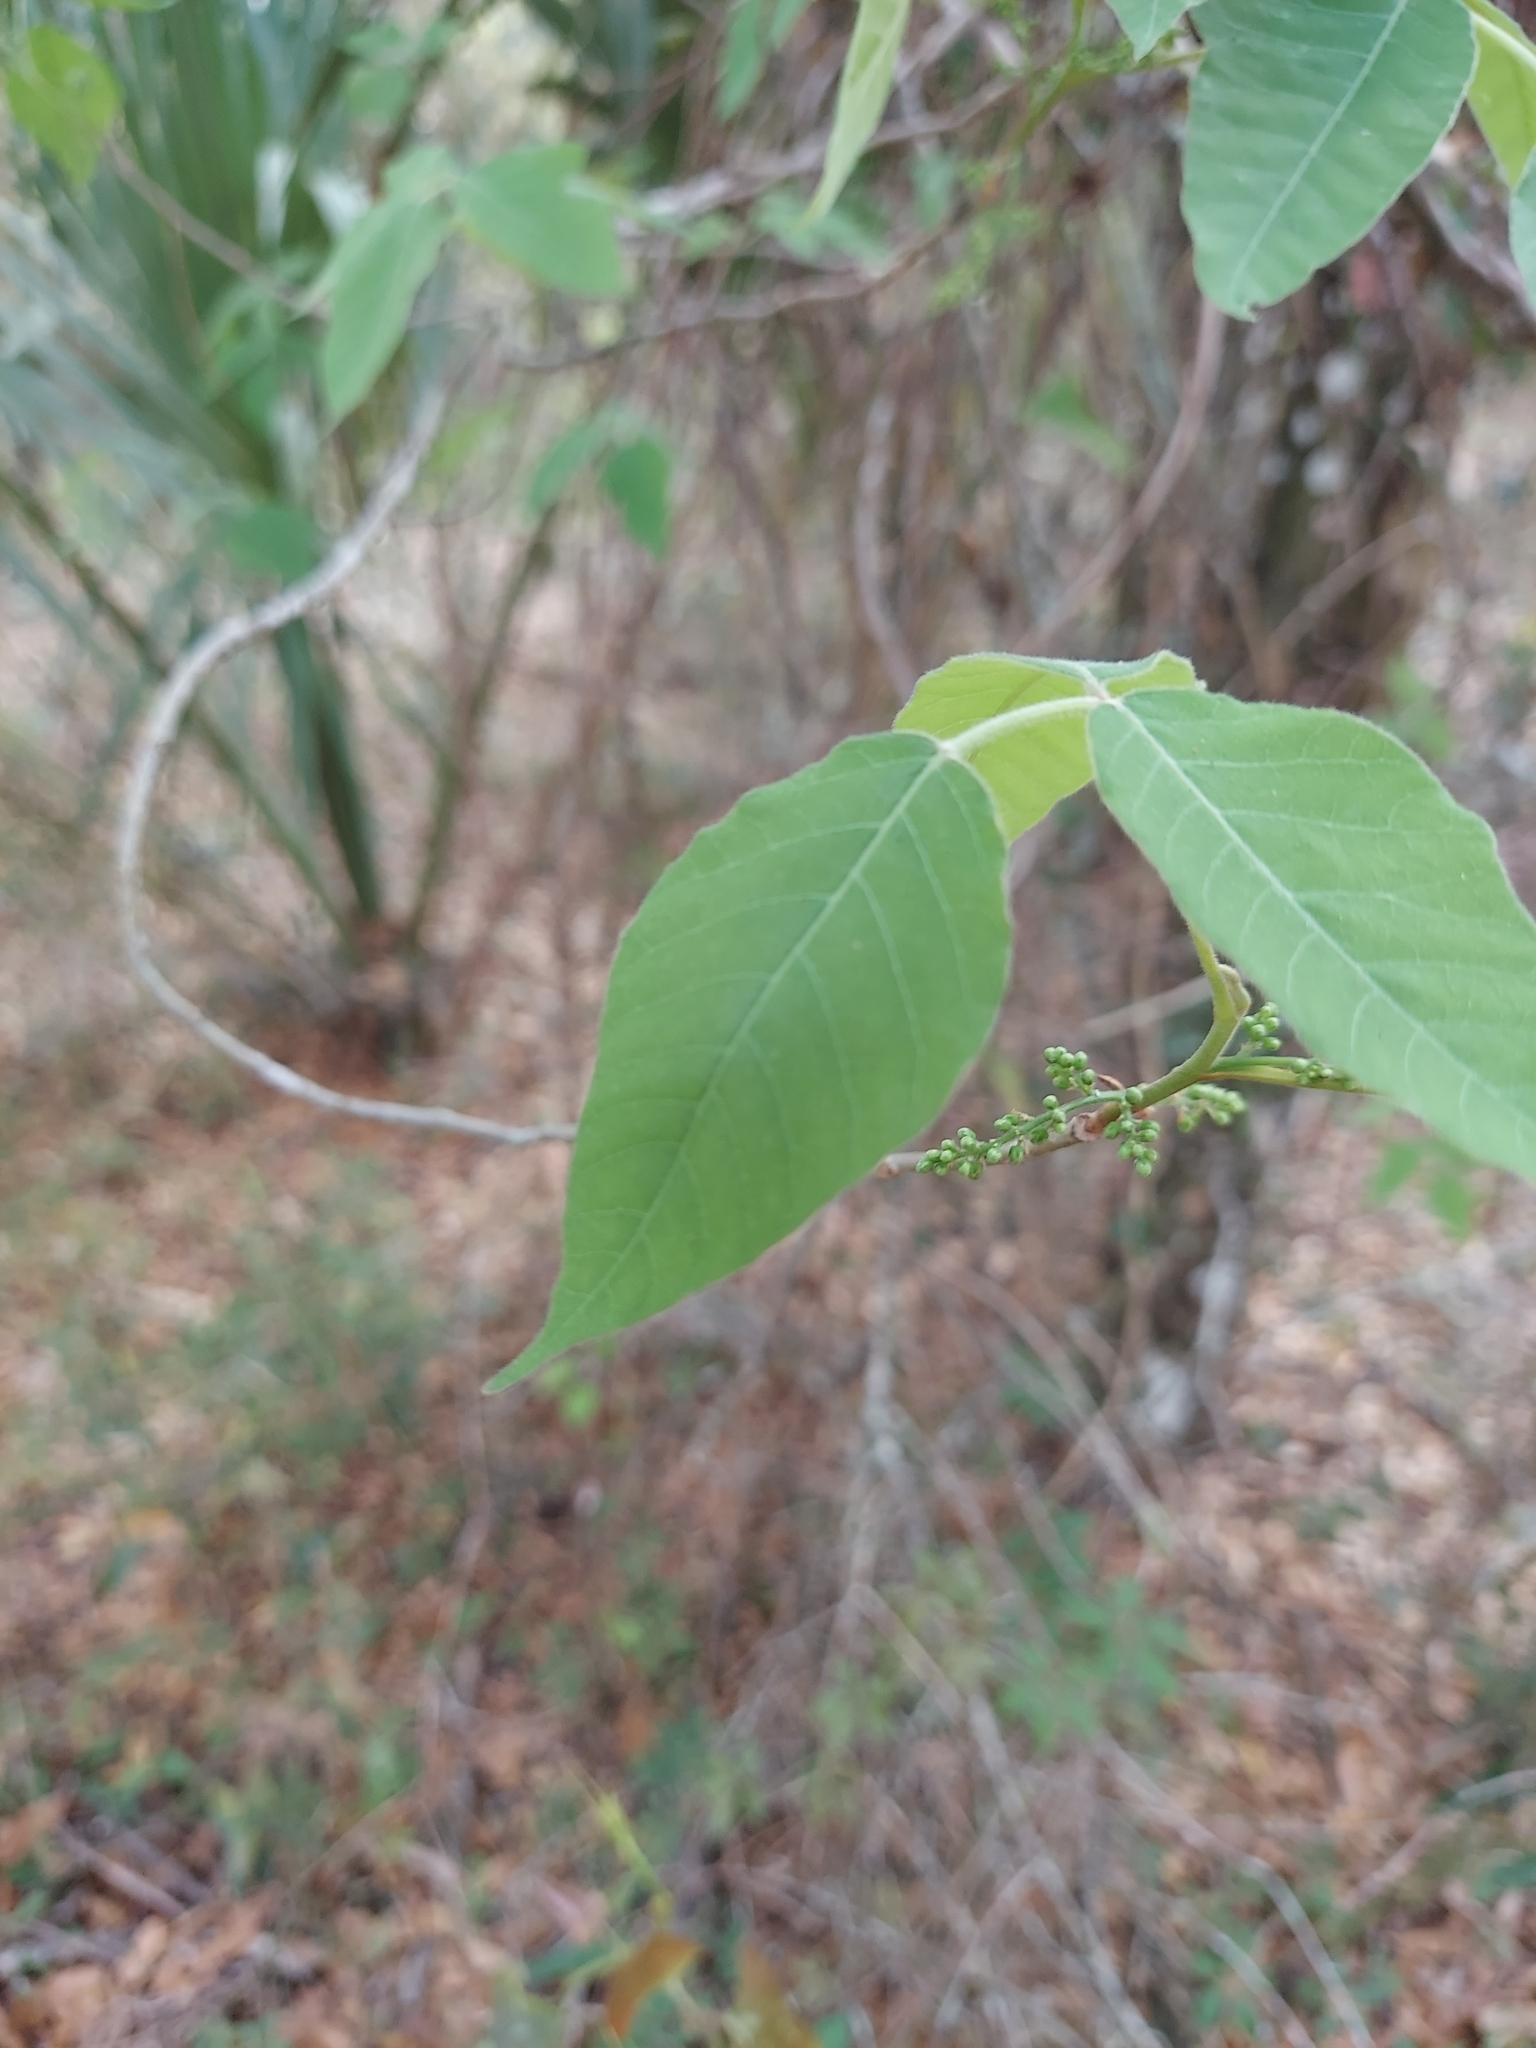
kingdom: Plantae
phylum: Tracheophyta
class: Magnoliopsida
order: Sapindales
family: Anacardiaceae
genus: Toxicodendron
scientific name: Toxicodendron radicans
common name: Poison ivy
